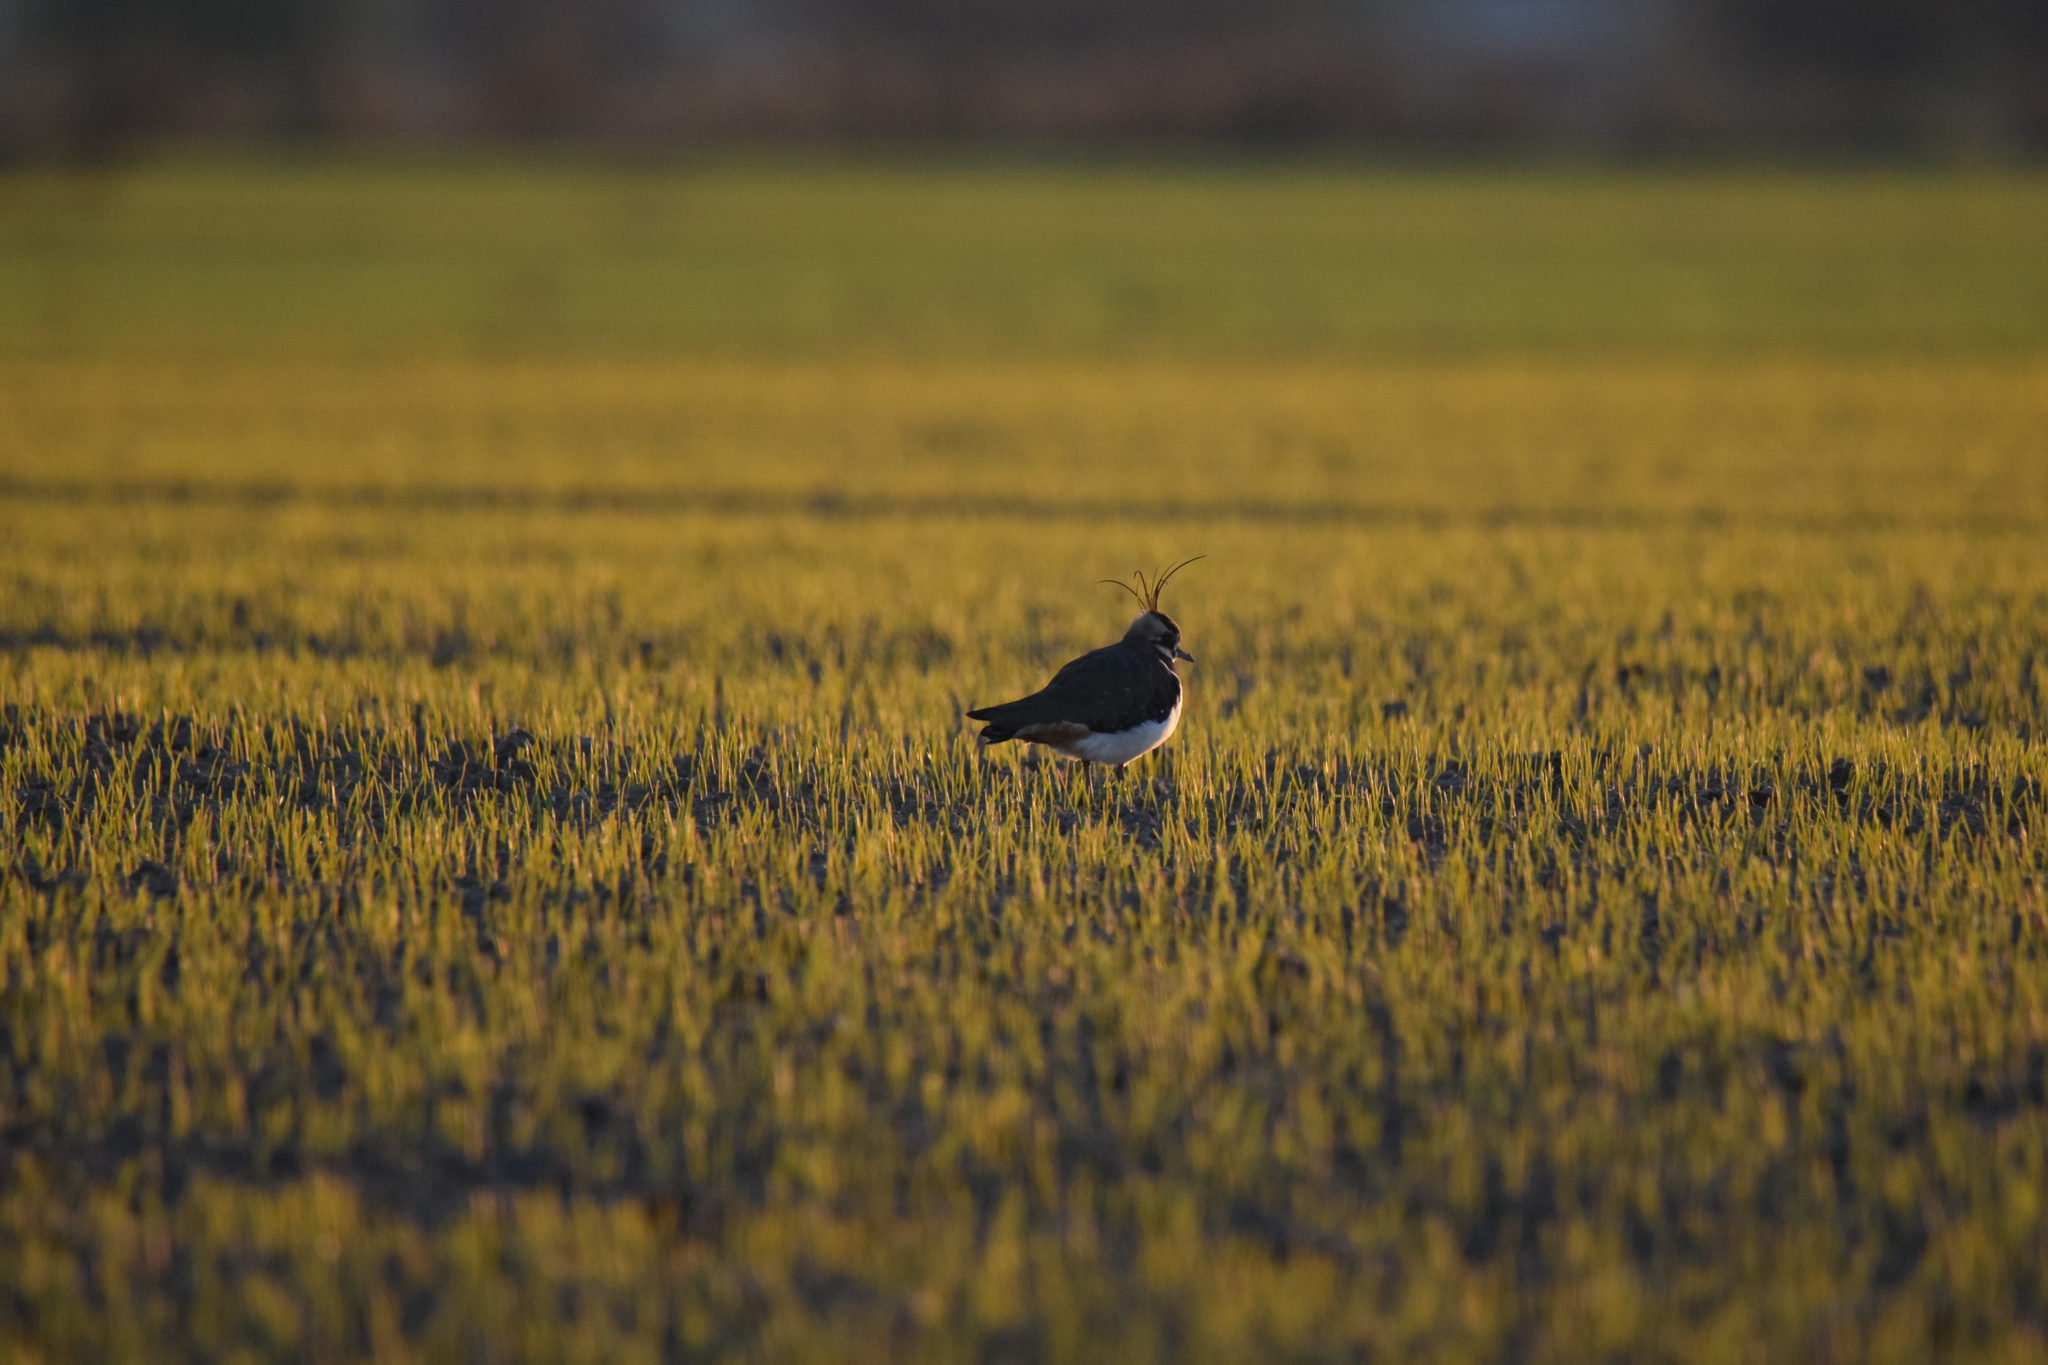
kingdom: Animalia
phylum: Chordata
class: Aves
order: Charadriiformes
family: Charadriidae
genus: Vanellus
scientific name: Vanellus vanellus
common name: Northern lapwing
